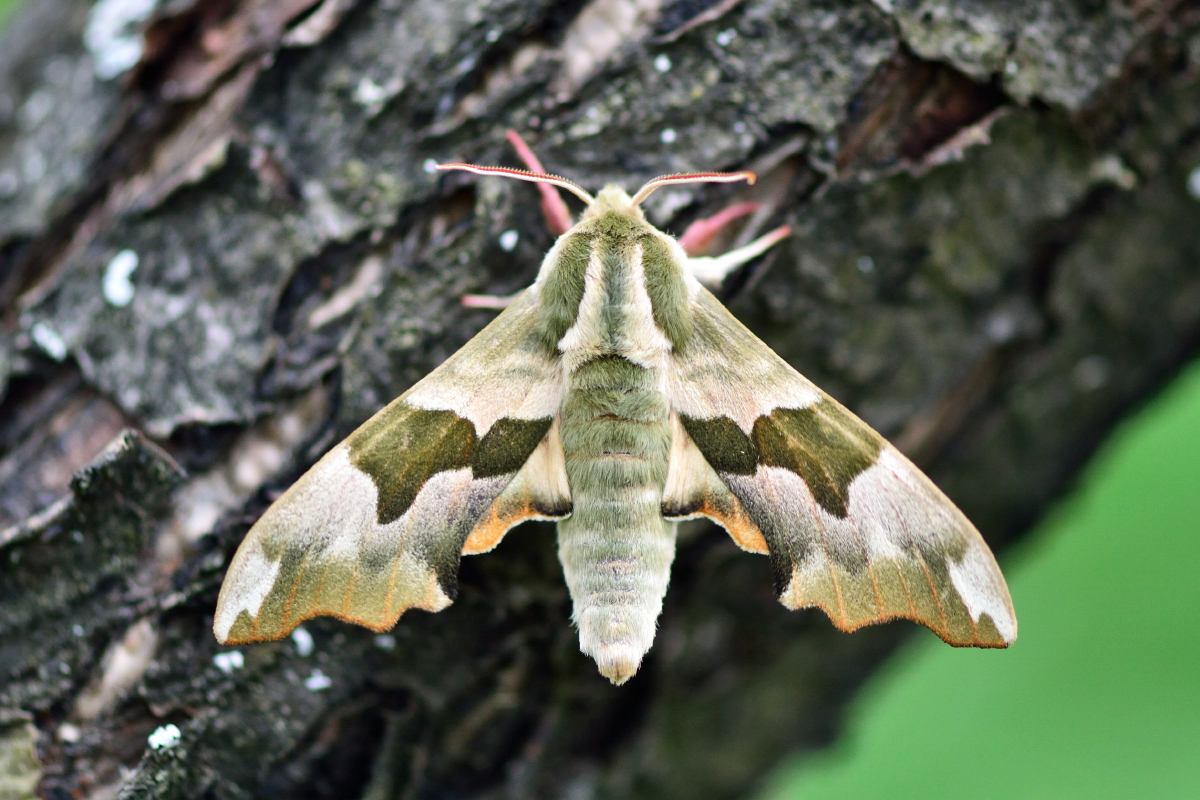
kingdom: Animalia
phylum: Arthropoda
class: Insecta
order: Lepidoptera
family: Sphingidae
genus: Mimas
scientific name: Mimas tiliae
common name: Lime hawk-moth
